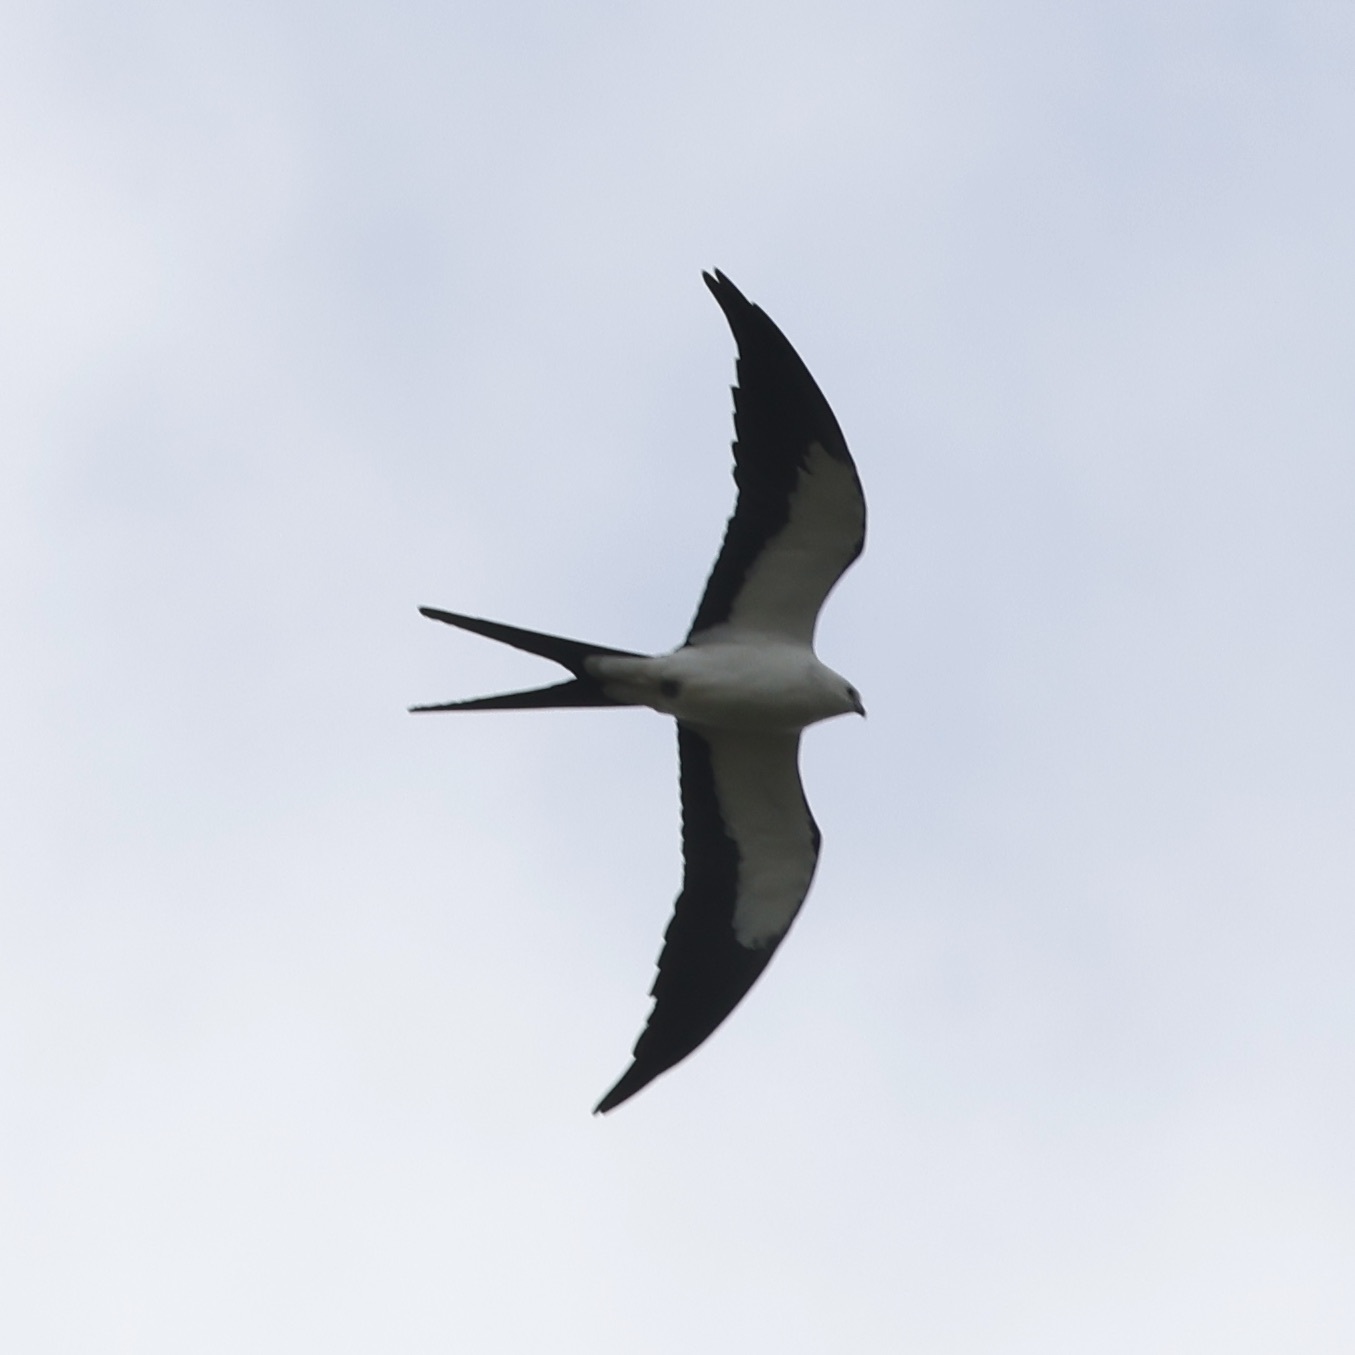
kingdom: Animalia
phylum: Chordata
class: Aves
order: Accipitriformes
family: Accipitridae
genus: Elanoides
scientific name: Elanoides forficatus
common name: Swallow-tailed kite
